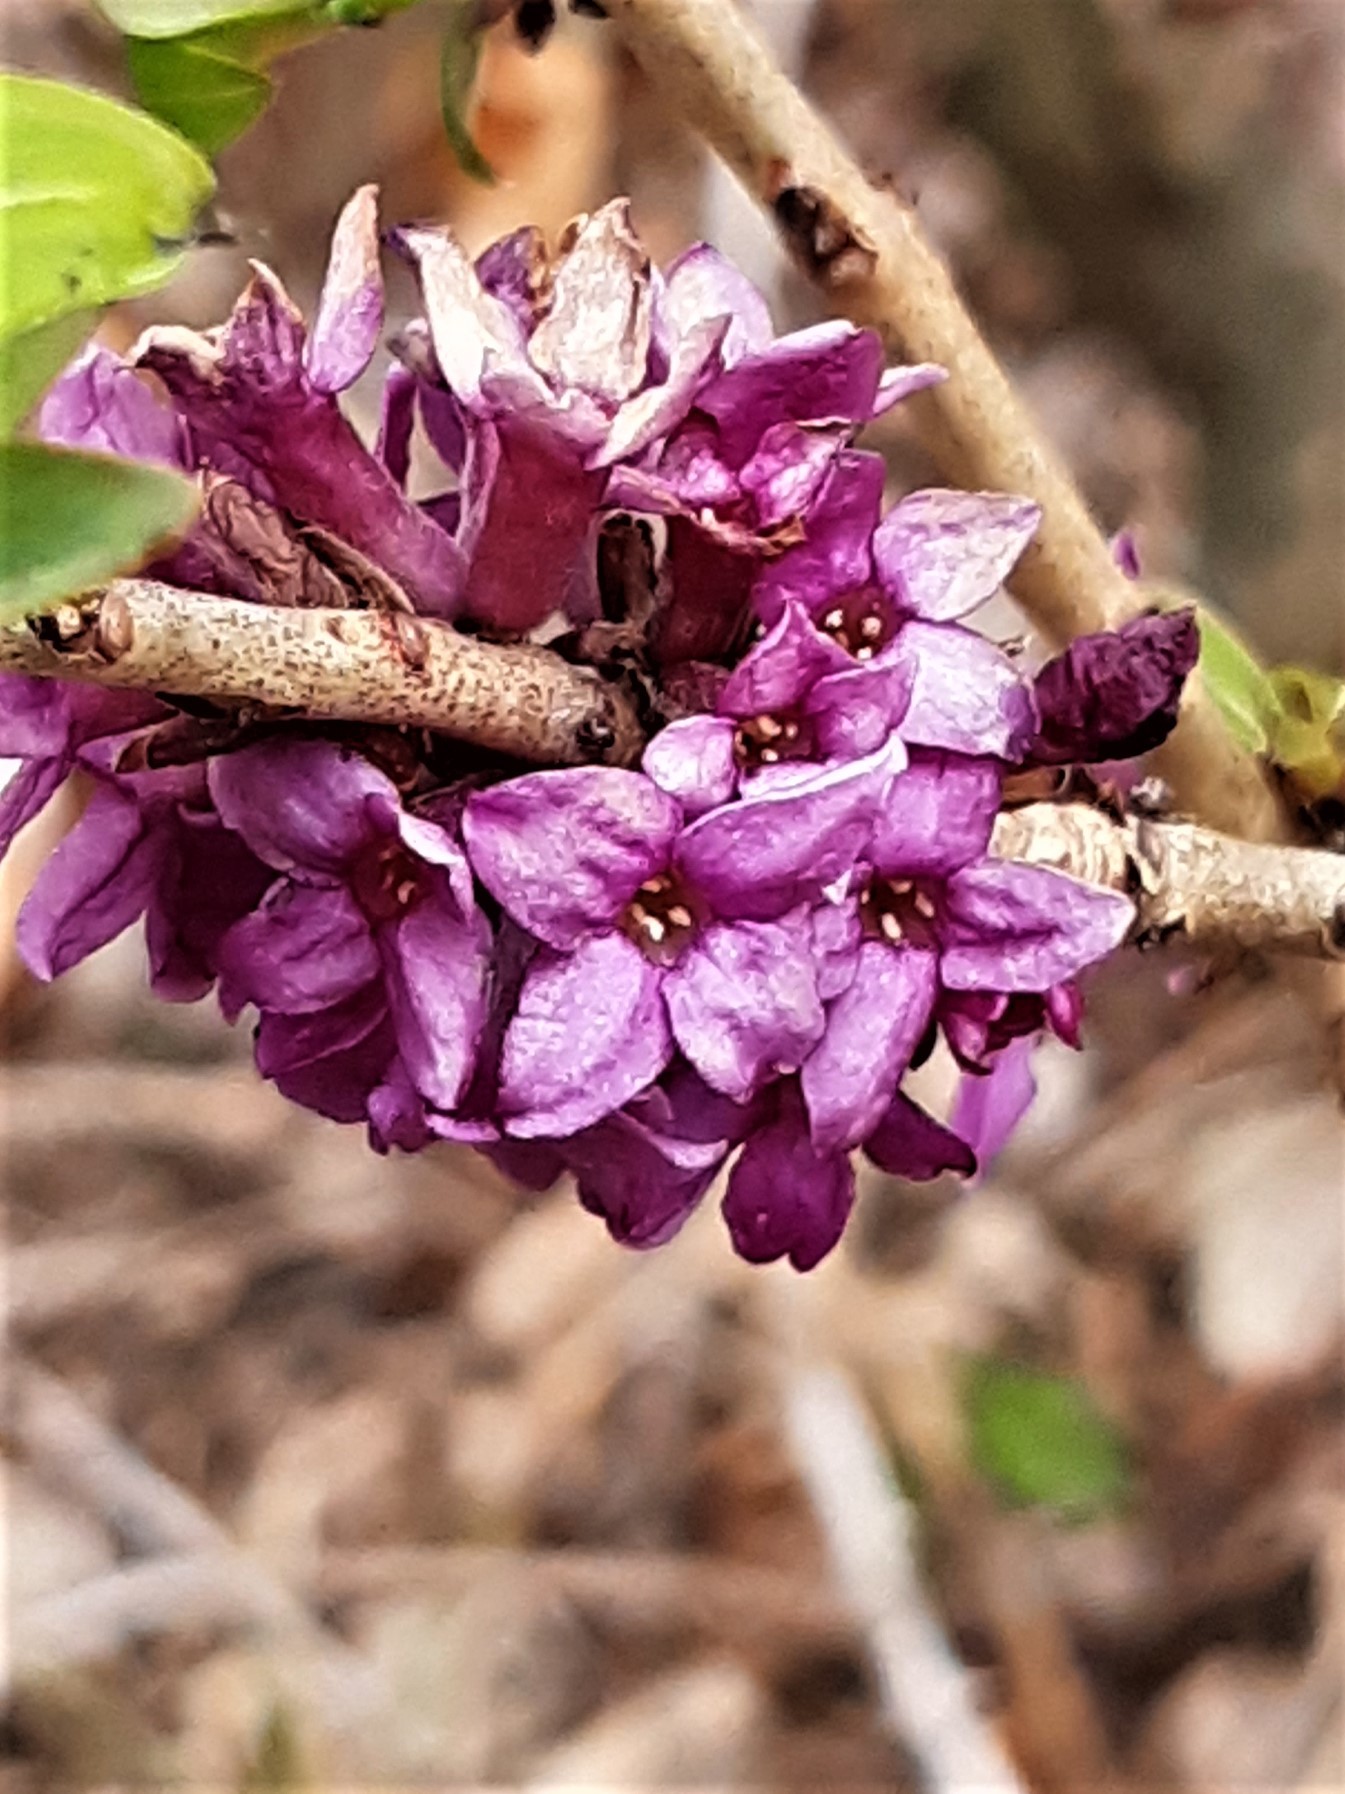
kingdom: Plantae
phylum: Tracheophyta
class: Magnoliopsida
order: Malvales
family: Thymelaeaceae
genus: Daphne
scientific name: Daphne mezereum
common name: Mezereon
